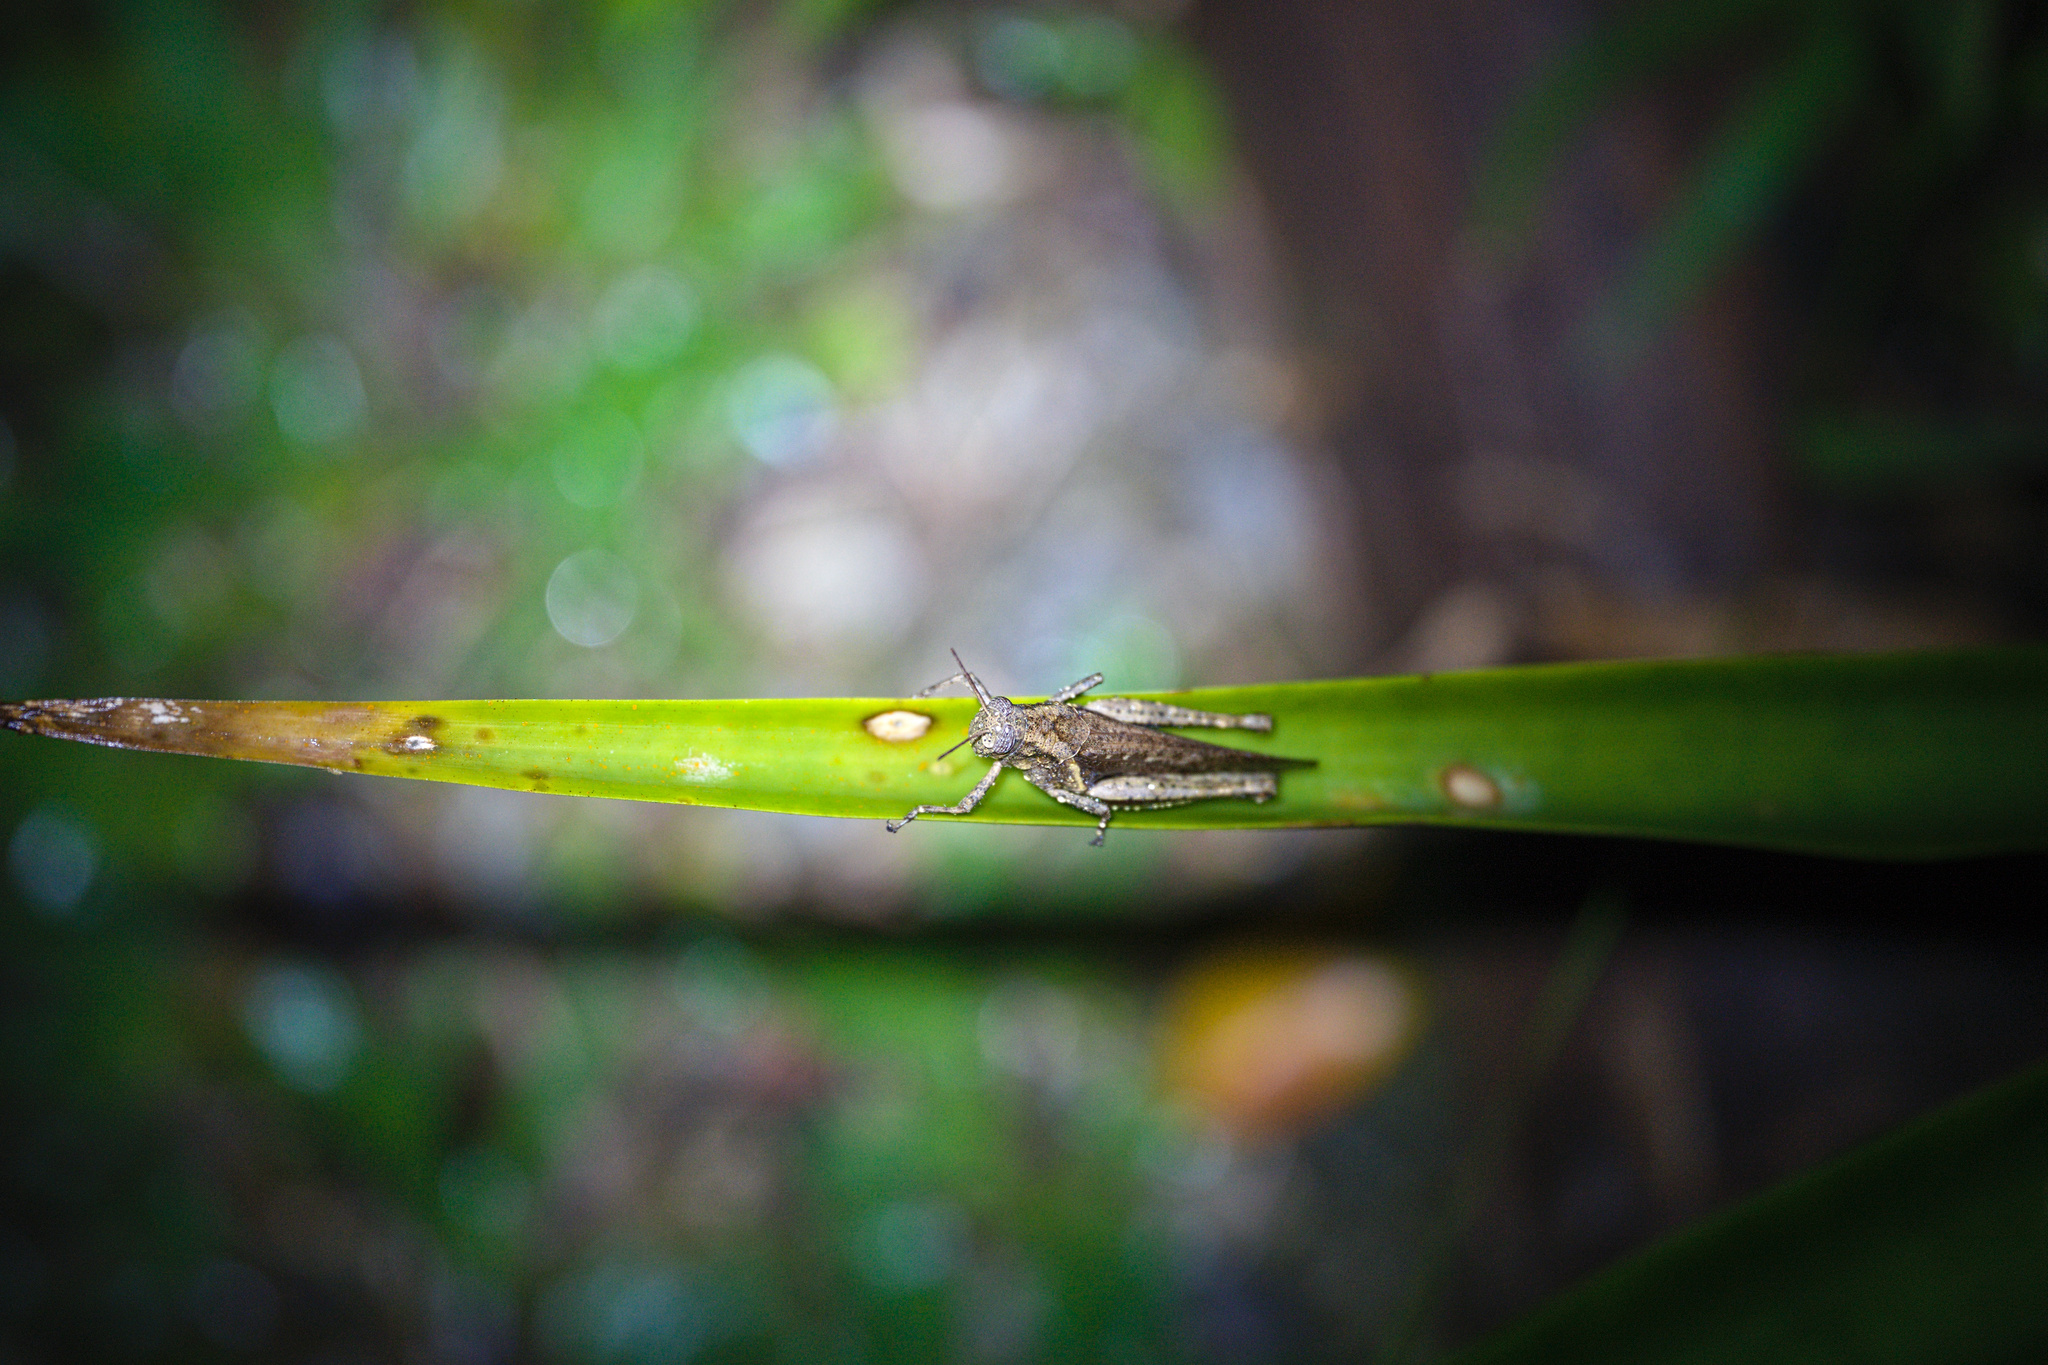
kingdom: Animalia
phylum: Arthropoda
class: Insecta
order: Orthoptera
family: Acrididae
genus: Abracris
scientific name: Abracris flavolineata
